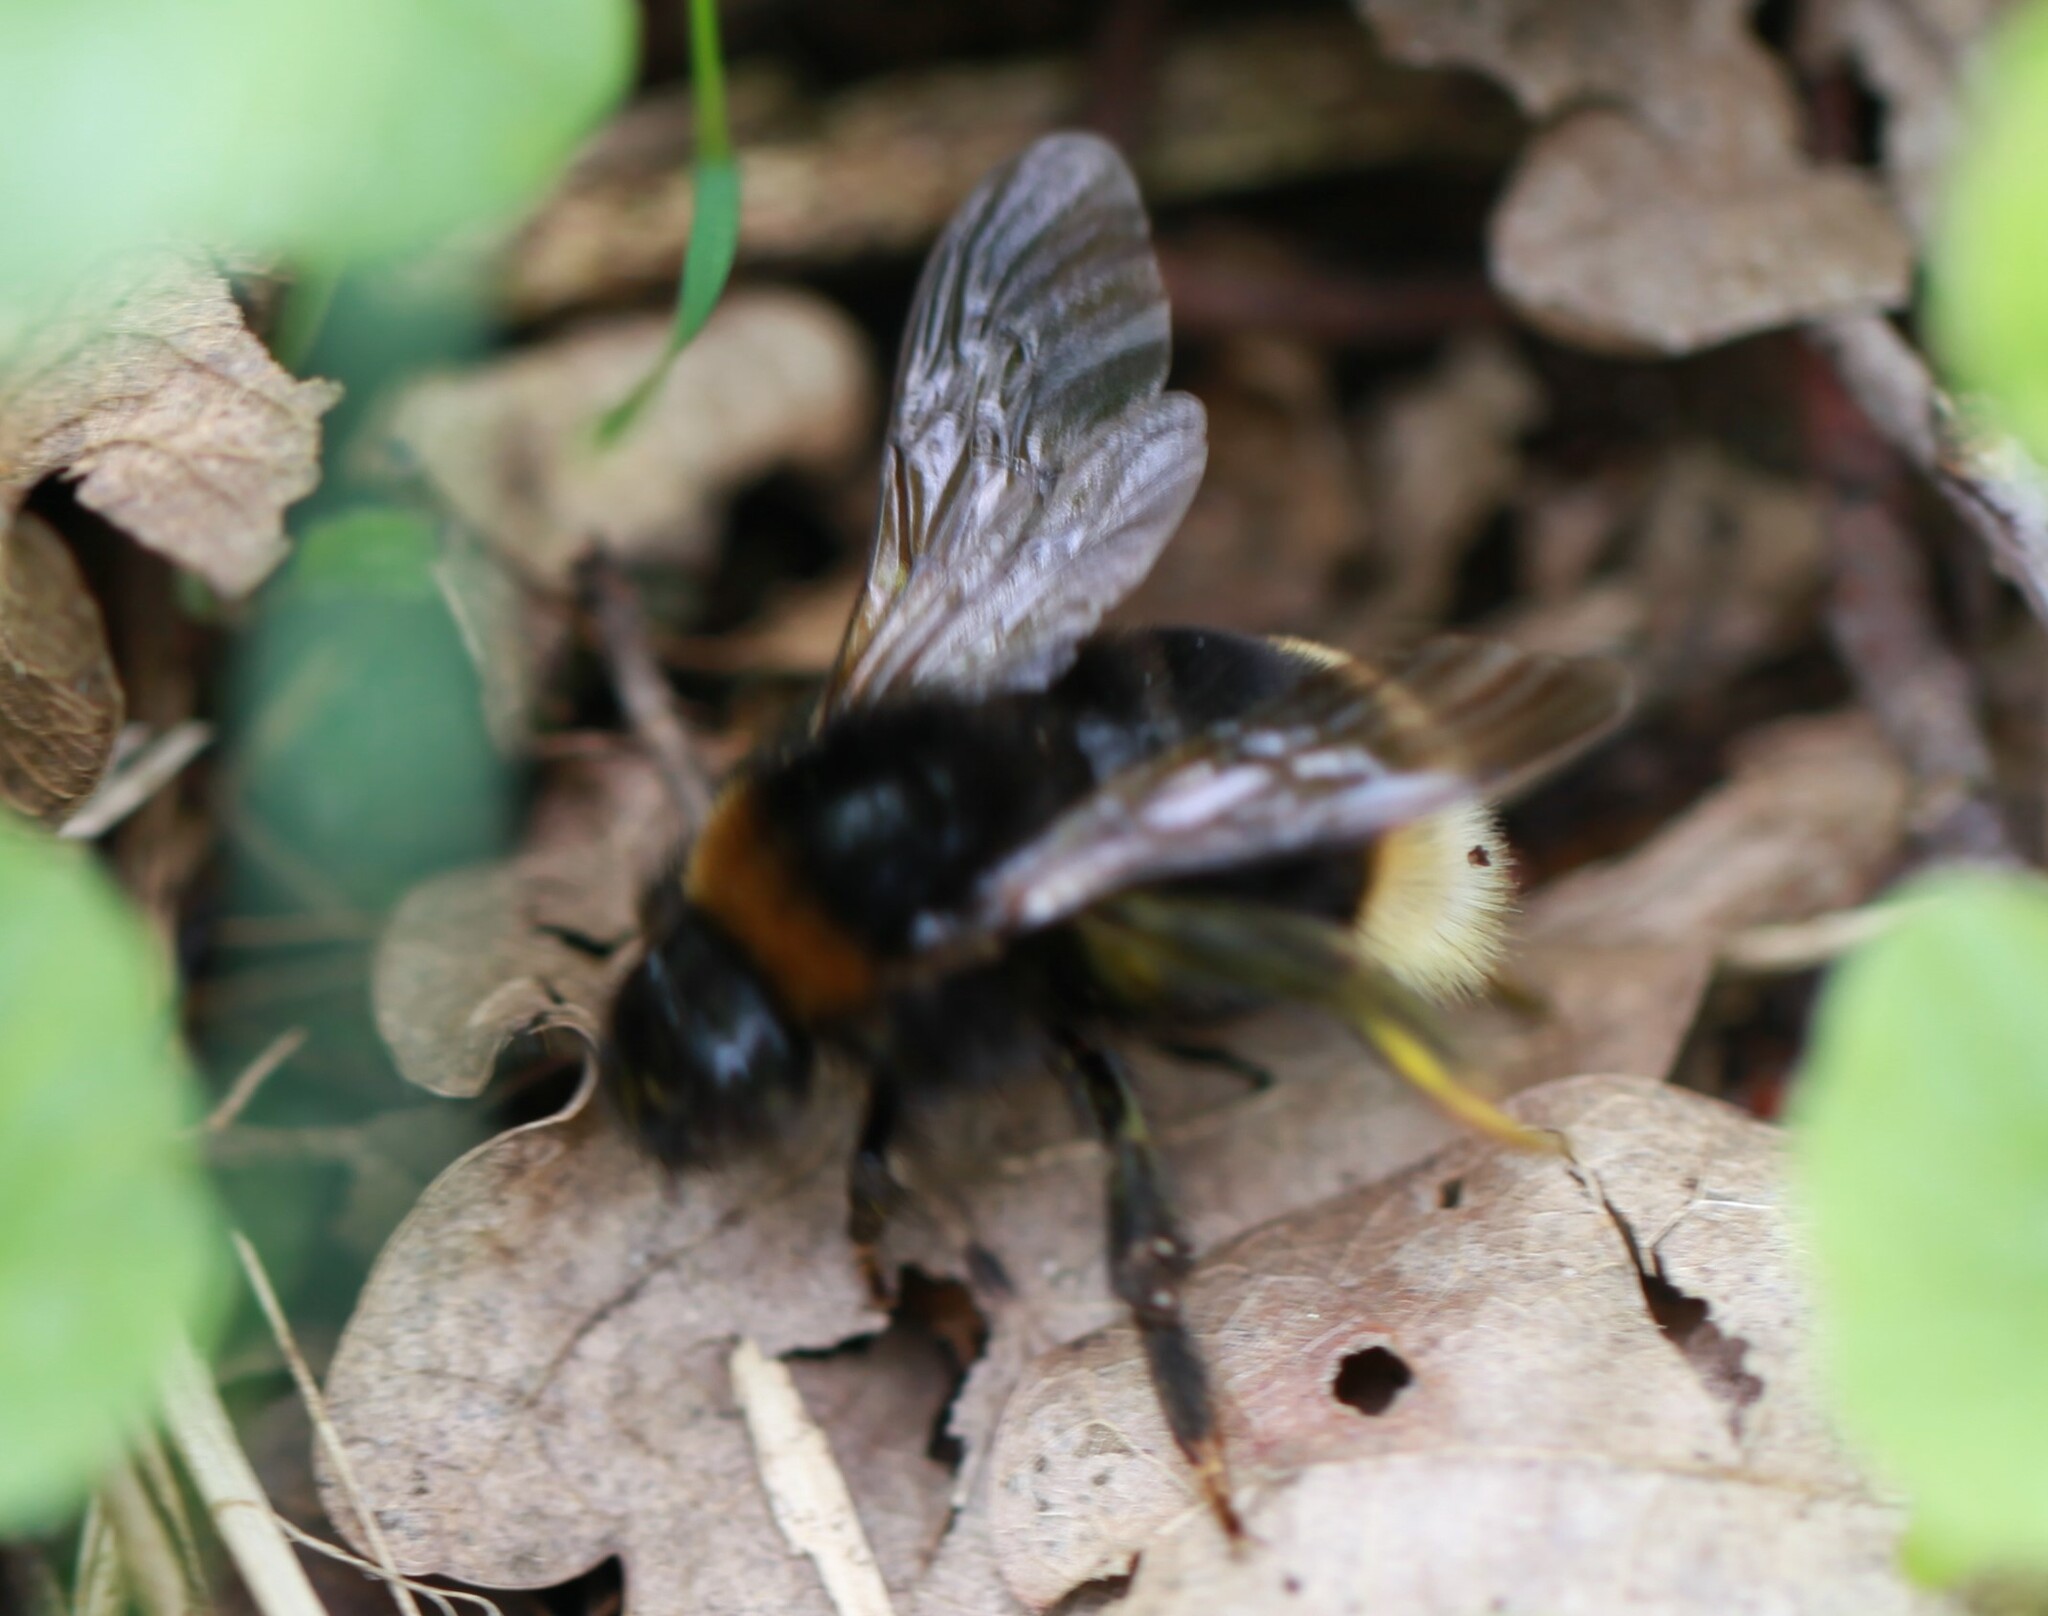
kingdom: Animalia
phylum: Arthropoda
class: Insecta
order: Hymenoptera
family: Apidae
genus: Bombus
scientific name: Bombus vestalis
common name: Vestal cuckoo bee
